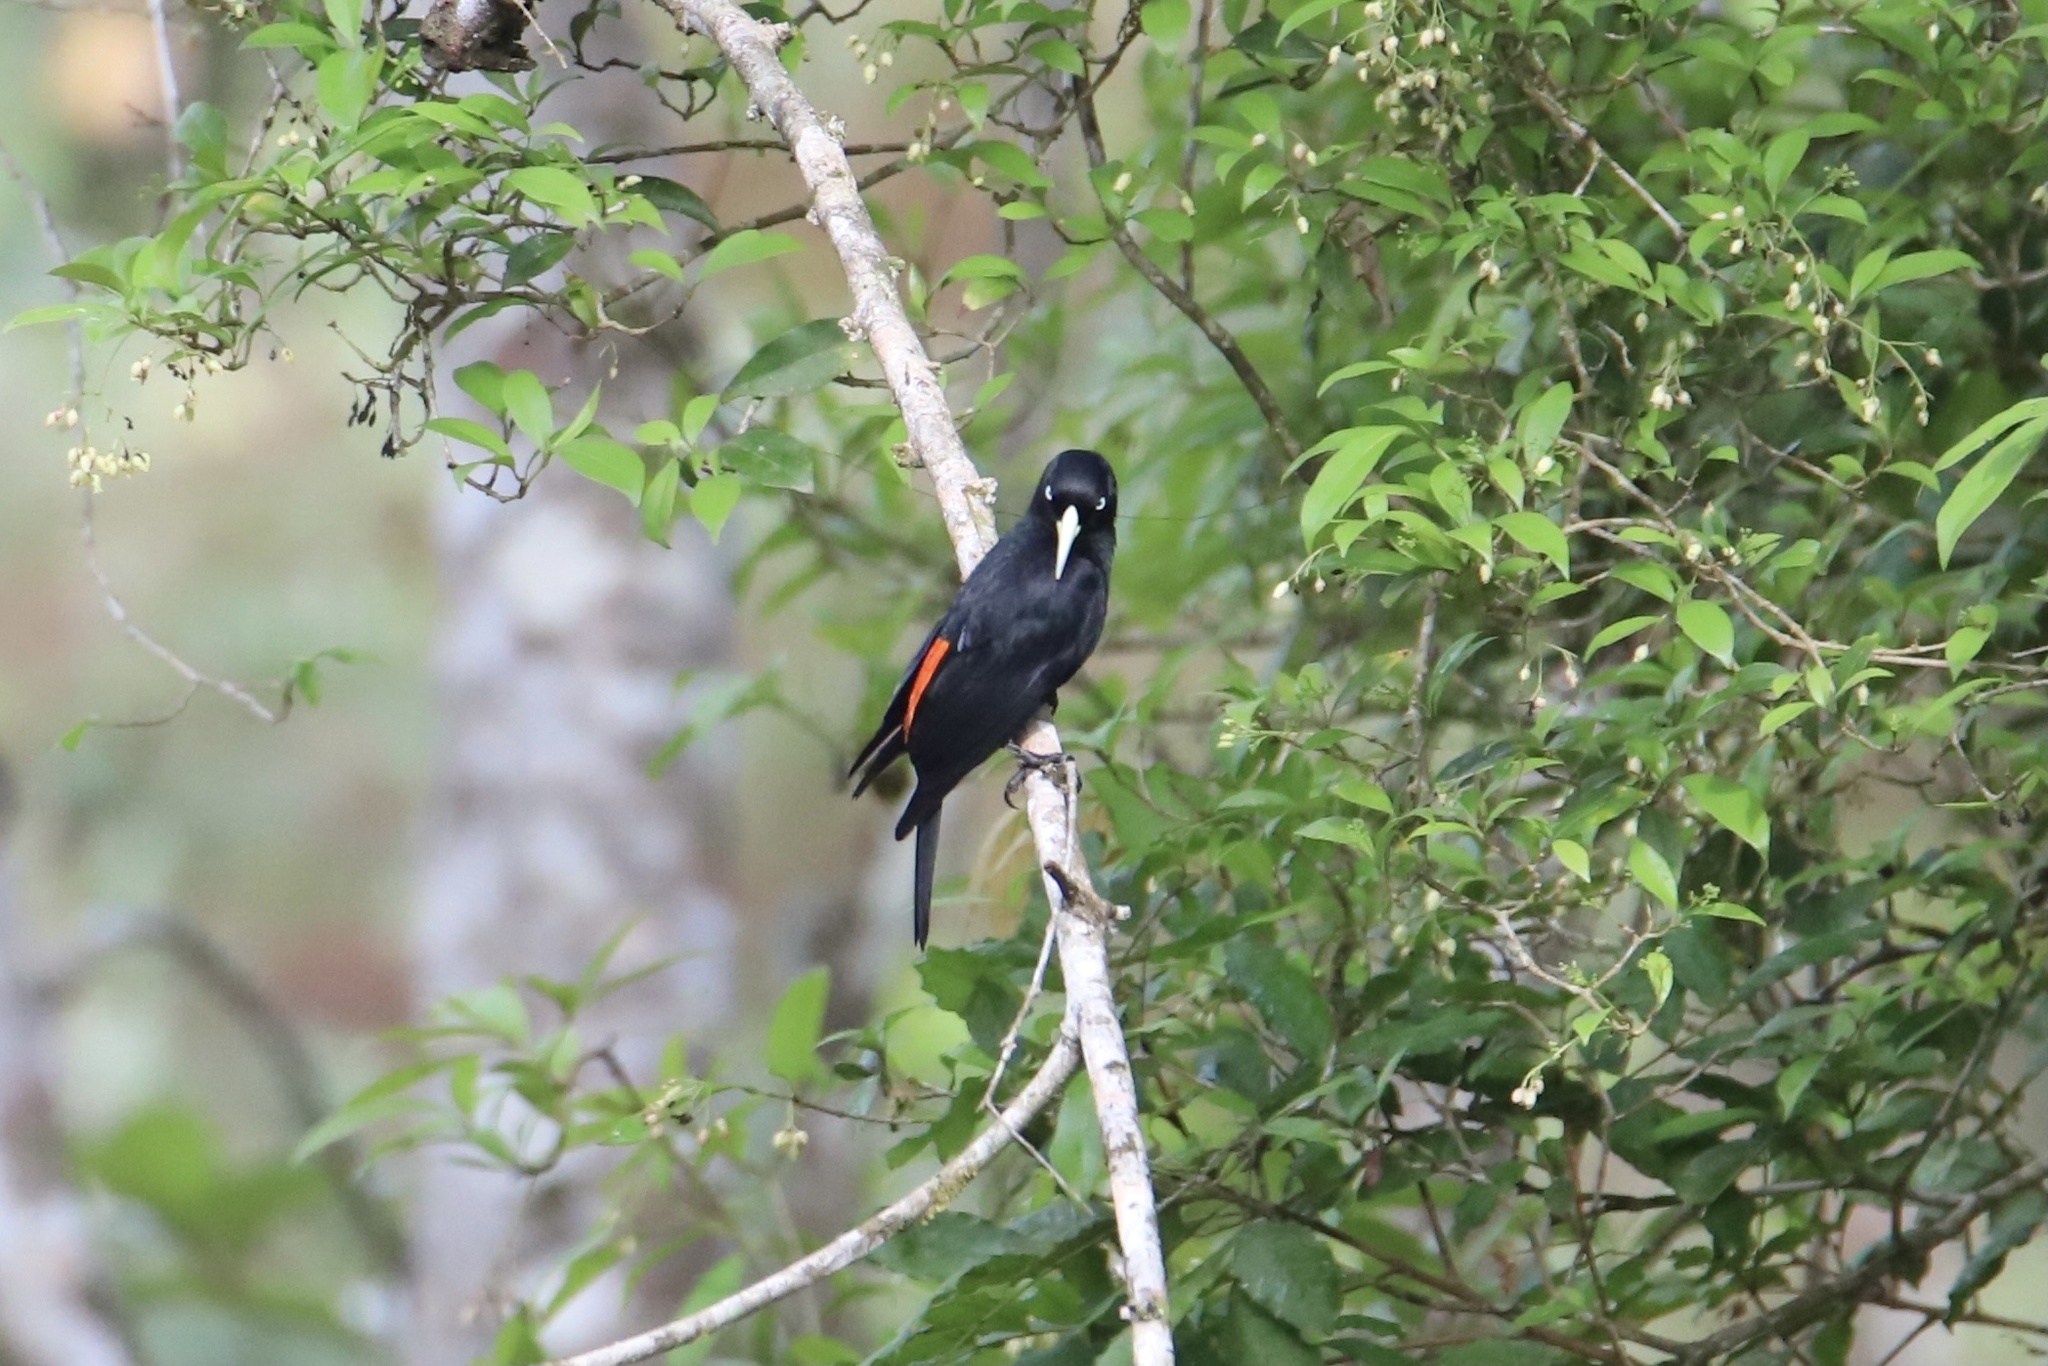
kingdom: Animalia
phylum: Chordata
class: Aves
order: Passeriformes
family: Icteridae
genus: Cacicus
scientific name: Cacicus uropygialis
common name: Scarlet-rumped cacique
